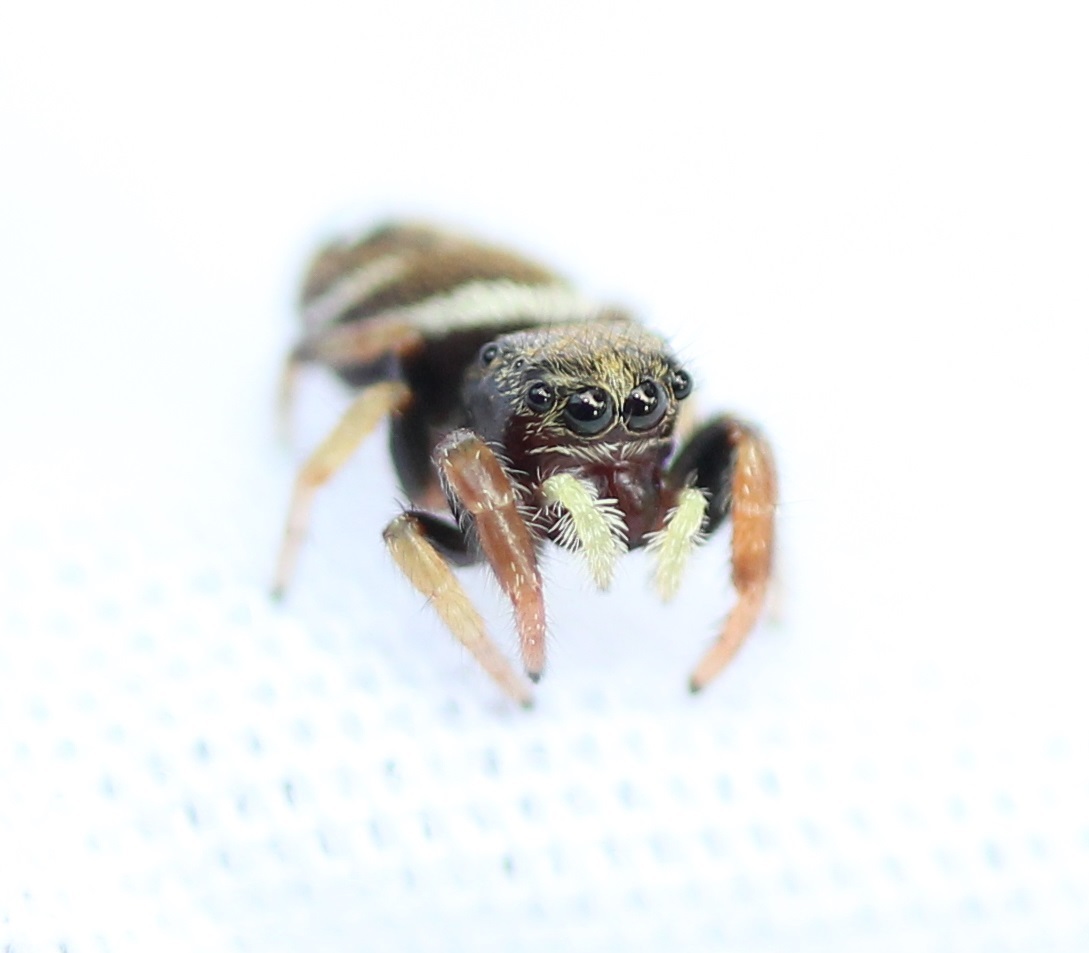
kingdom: Animalia
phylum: Arthropoda
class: Arachnida
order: Araneae
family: Salticidae
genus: Phidippus
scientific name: Phidippus whitmani
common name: Whitman's jumping spider
